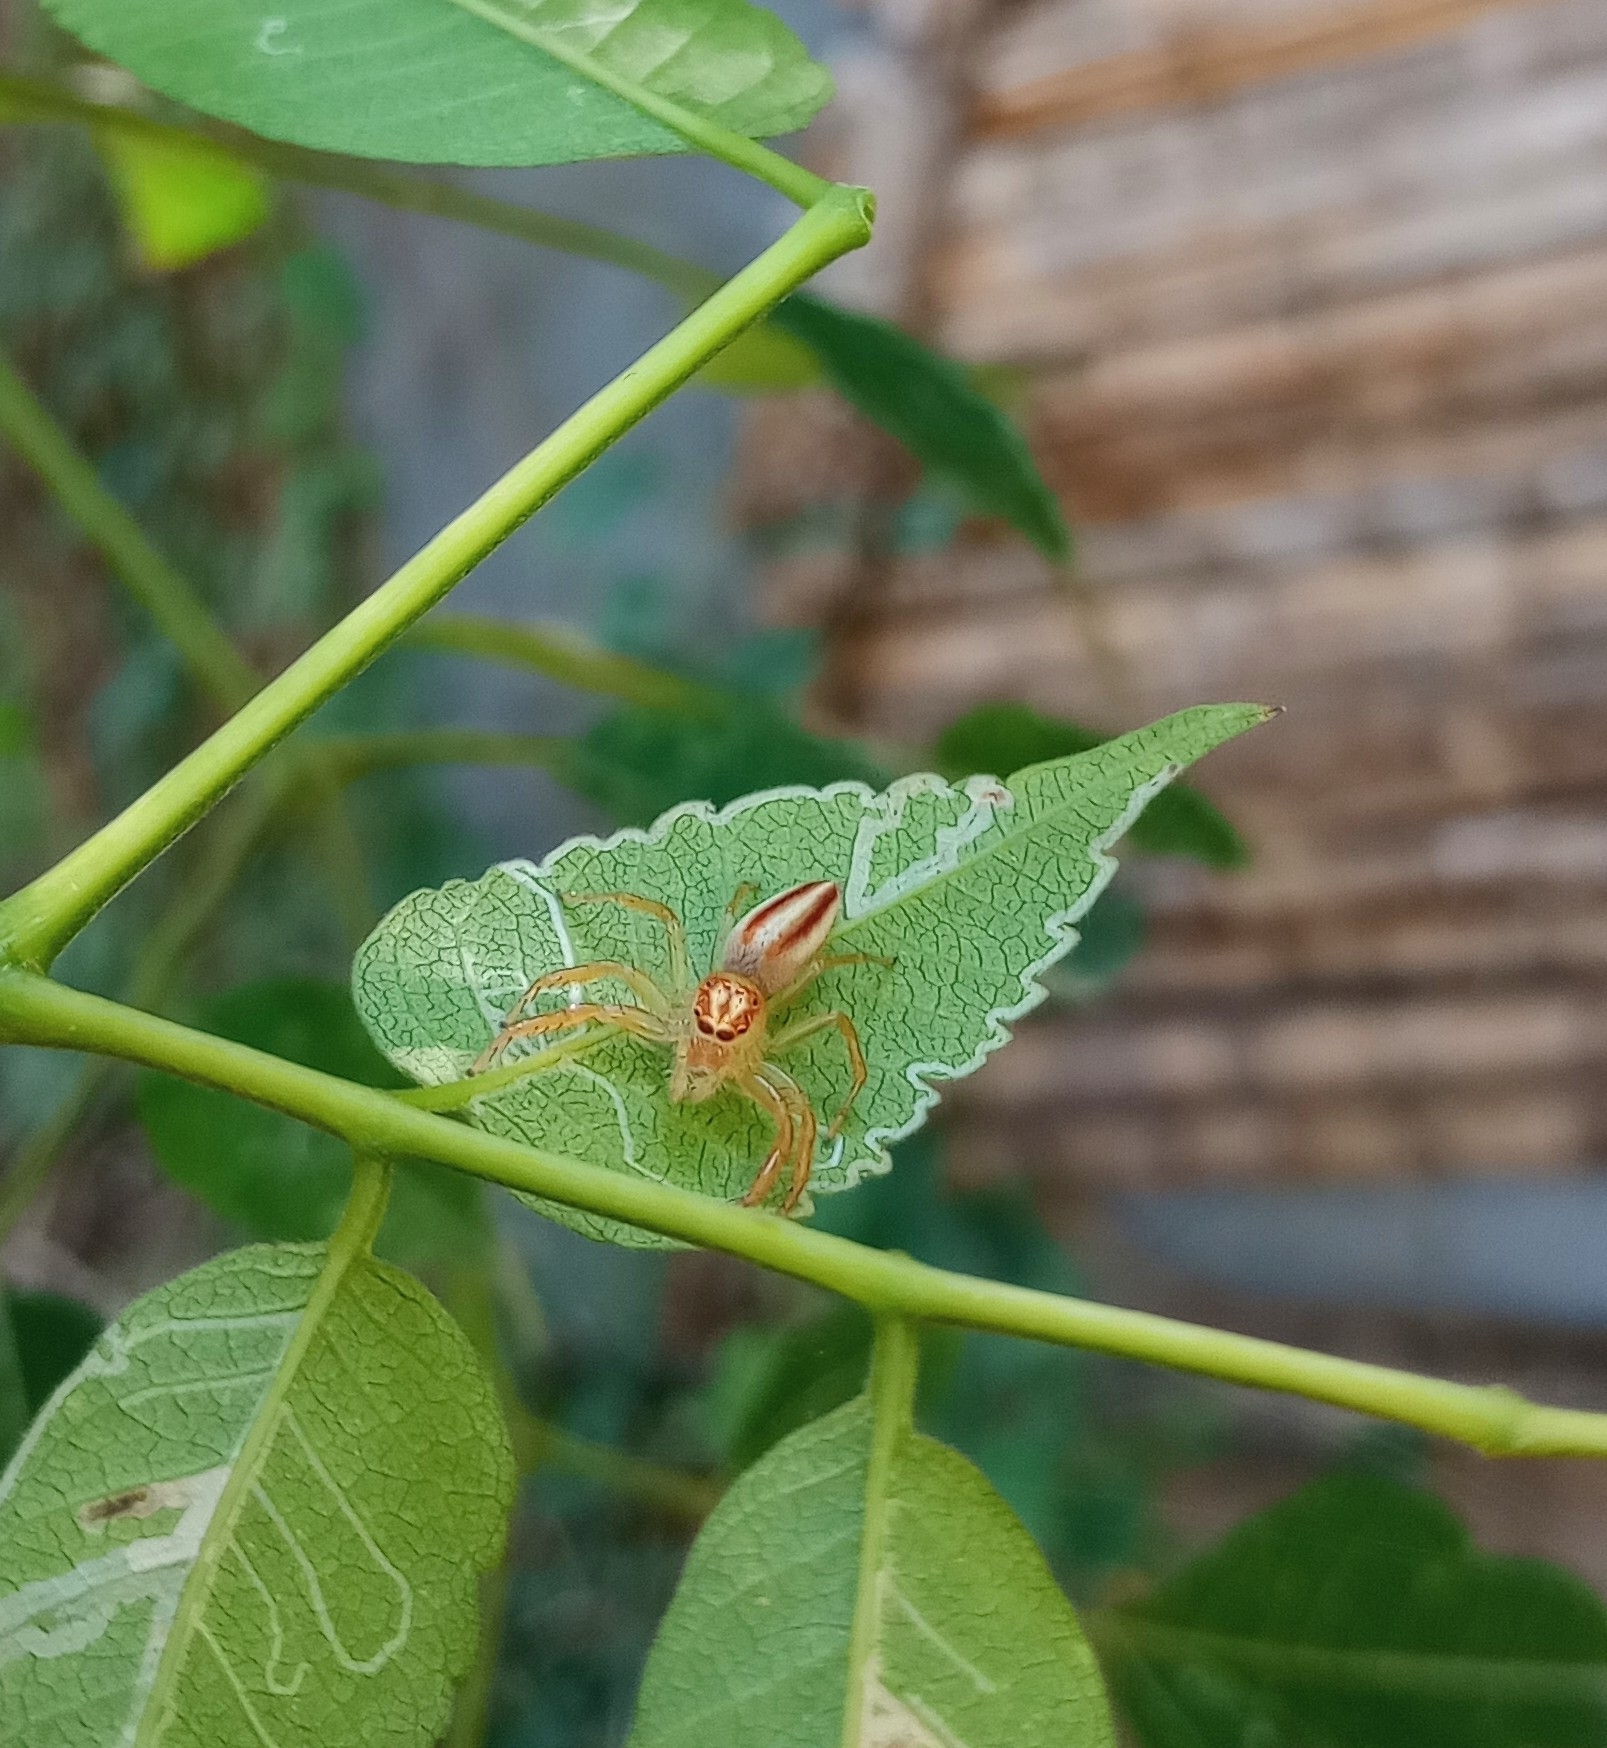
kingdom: Animalia
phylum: Arthropoda
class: Arachnida
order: Araneae
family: Salticidae
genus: Telamonia
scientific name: Telamonia dimidiata
